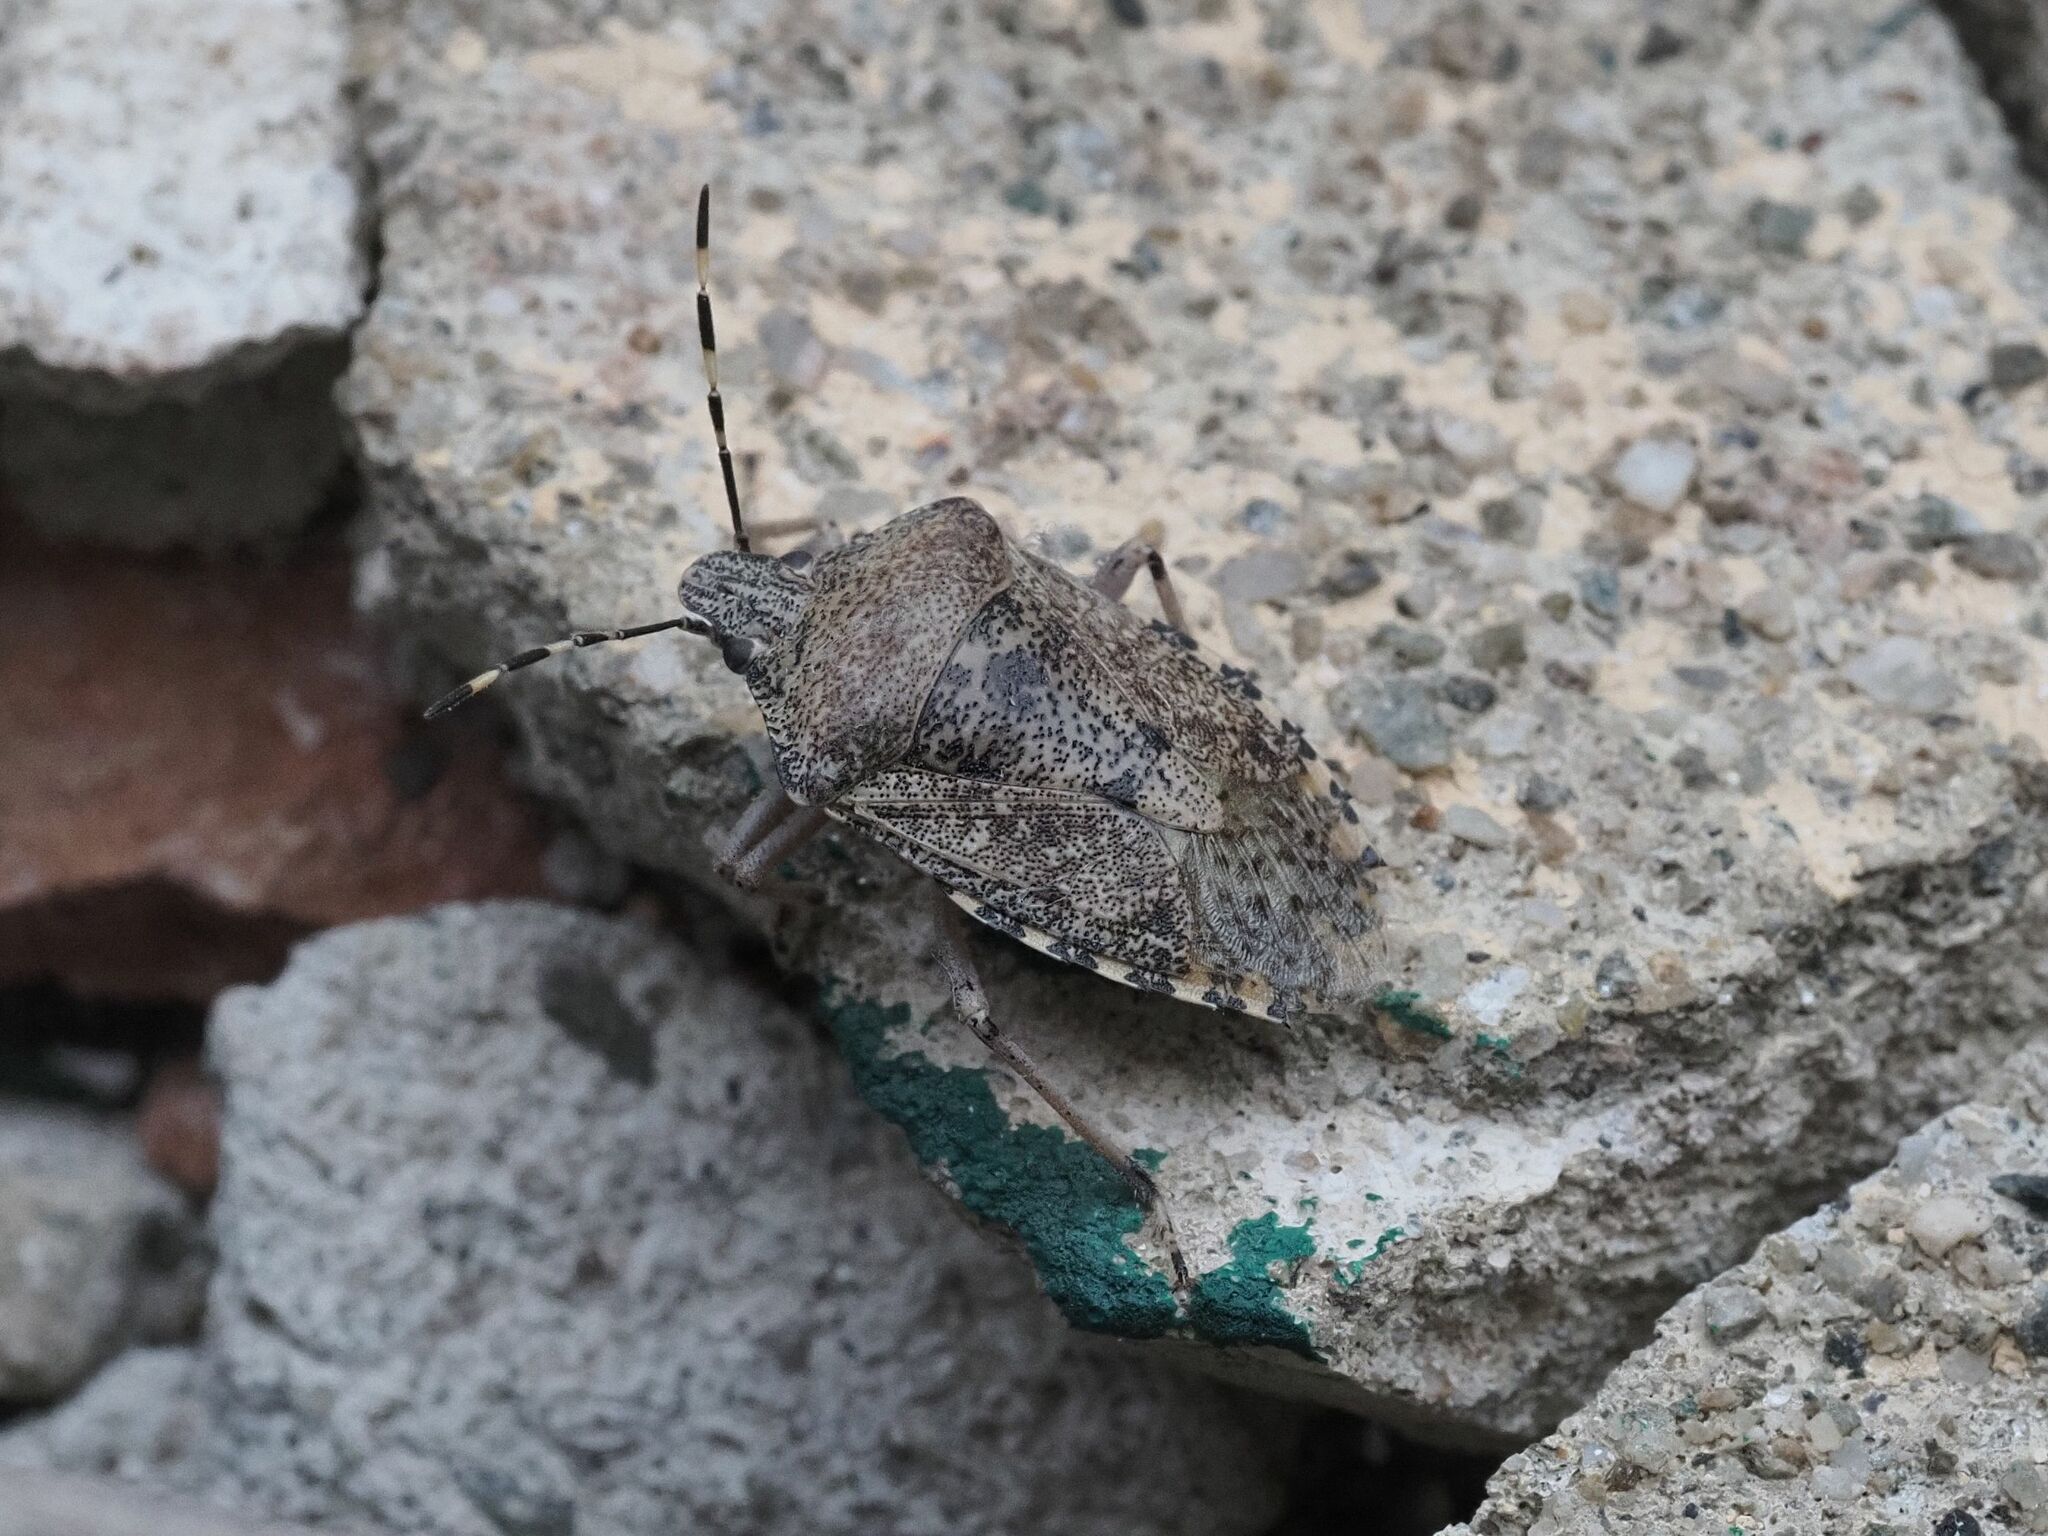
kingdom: Animalia
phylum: Arthropoda
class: Insecta
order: Hemiptera
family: Pentatomidae
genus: Rhaphigaster
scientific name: Rhaphigaster nebulosa
